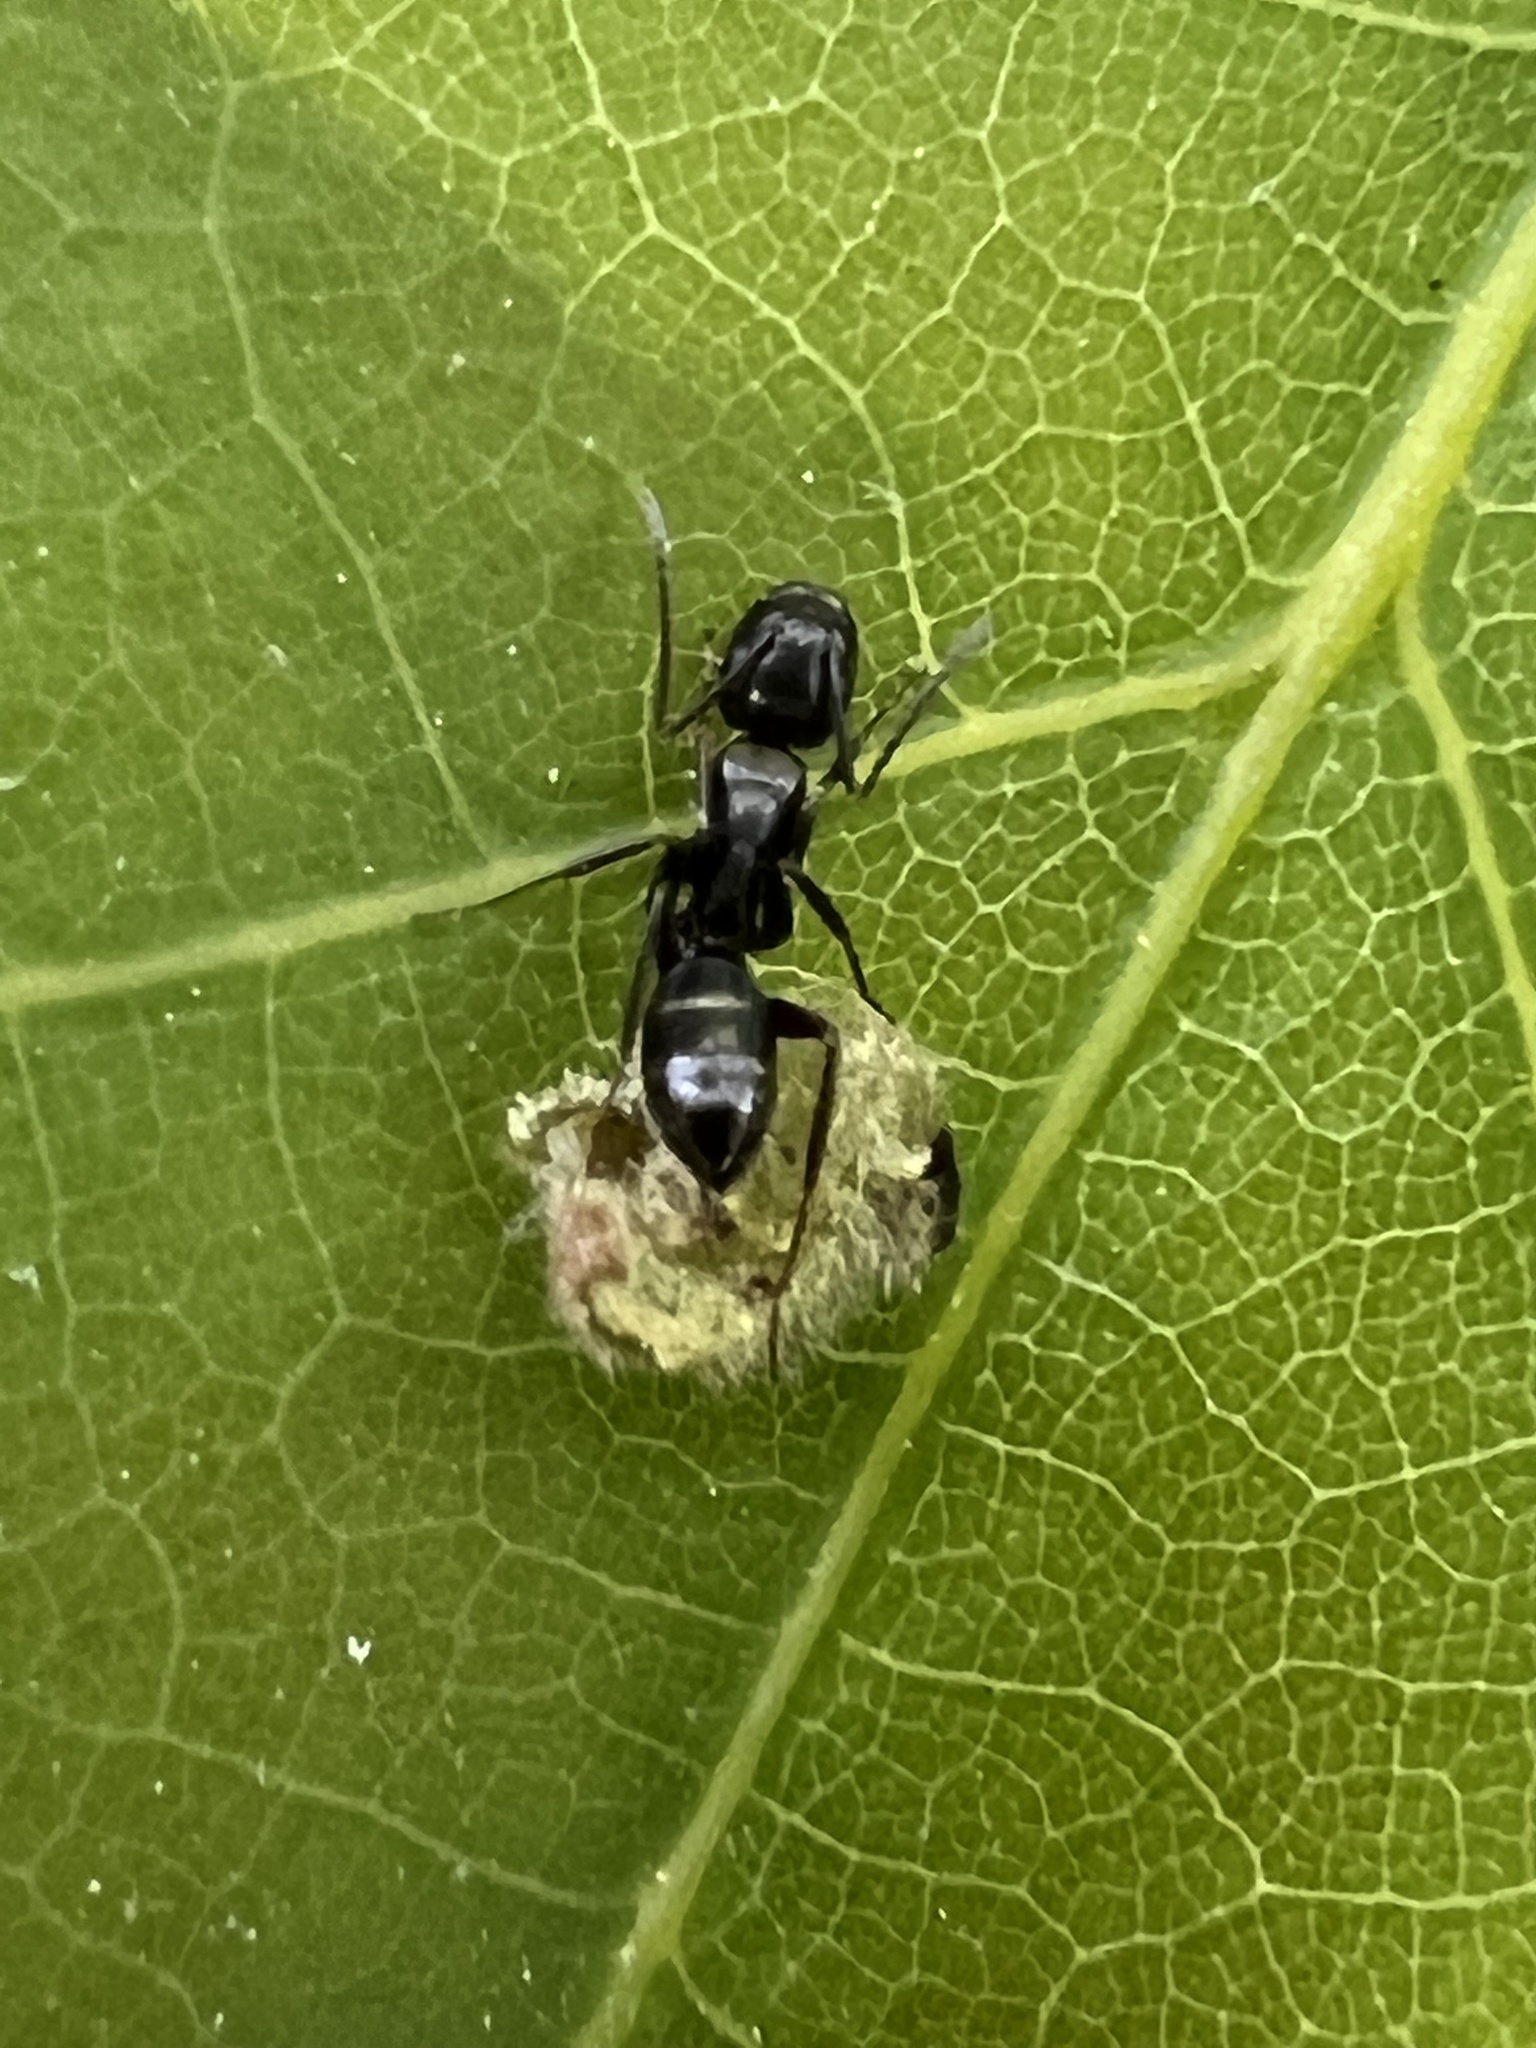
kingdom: Animalia
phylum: Arthropoda
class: Insecta
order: Hymenoptera
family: Formicidae
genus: Camponotus
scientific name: Camponotus nearcticus
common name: Smaller carpenter ant
